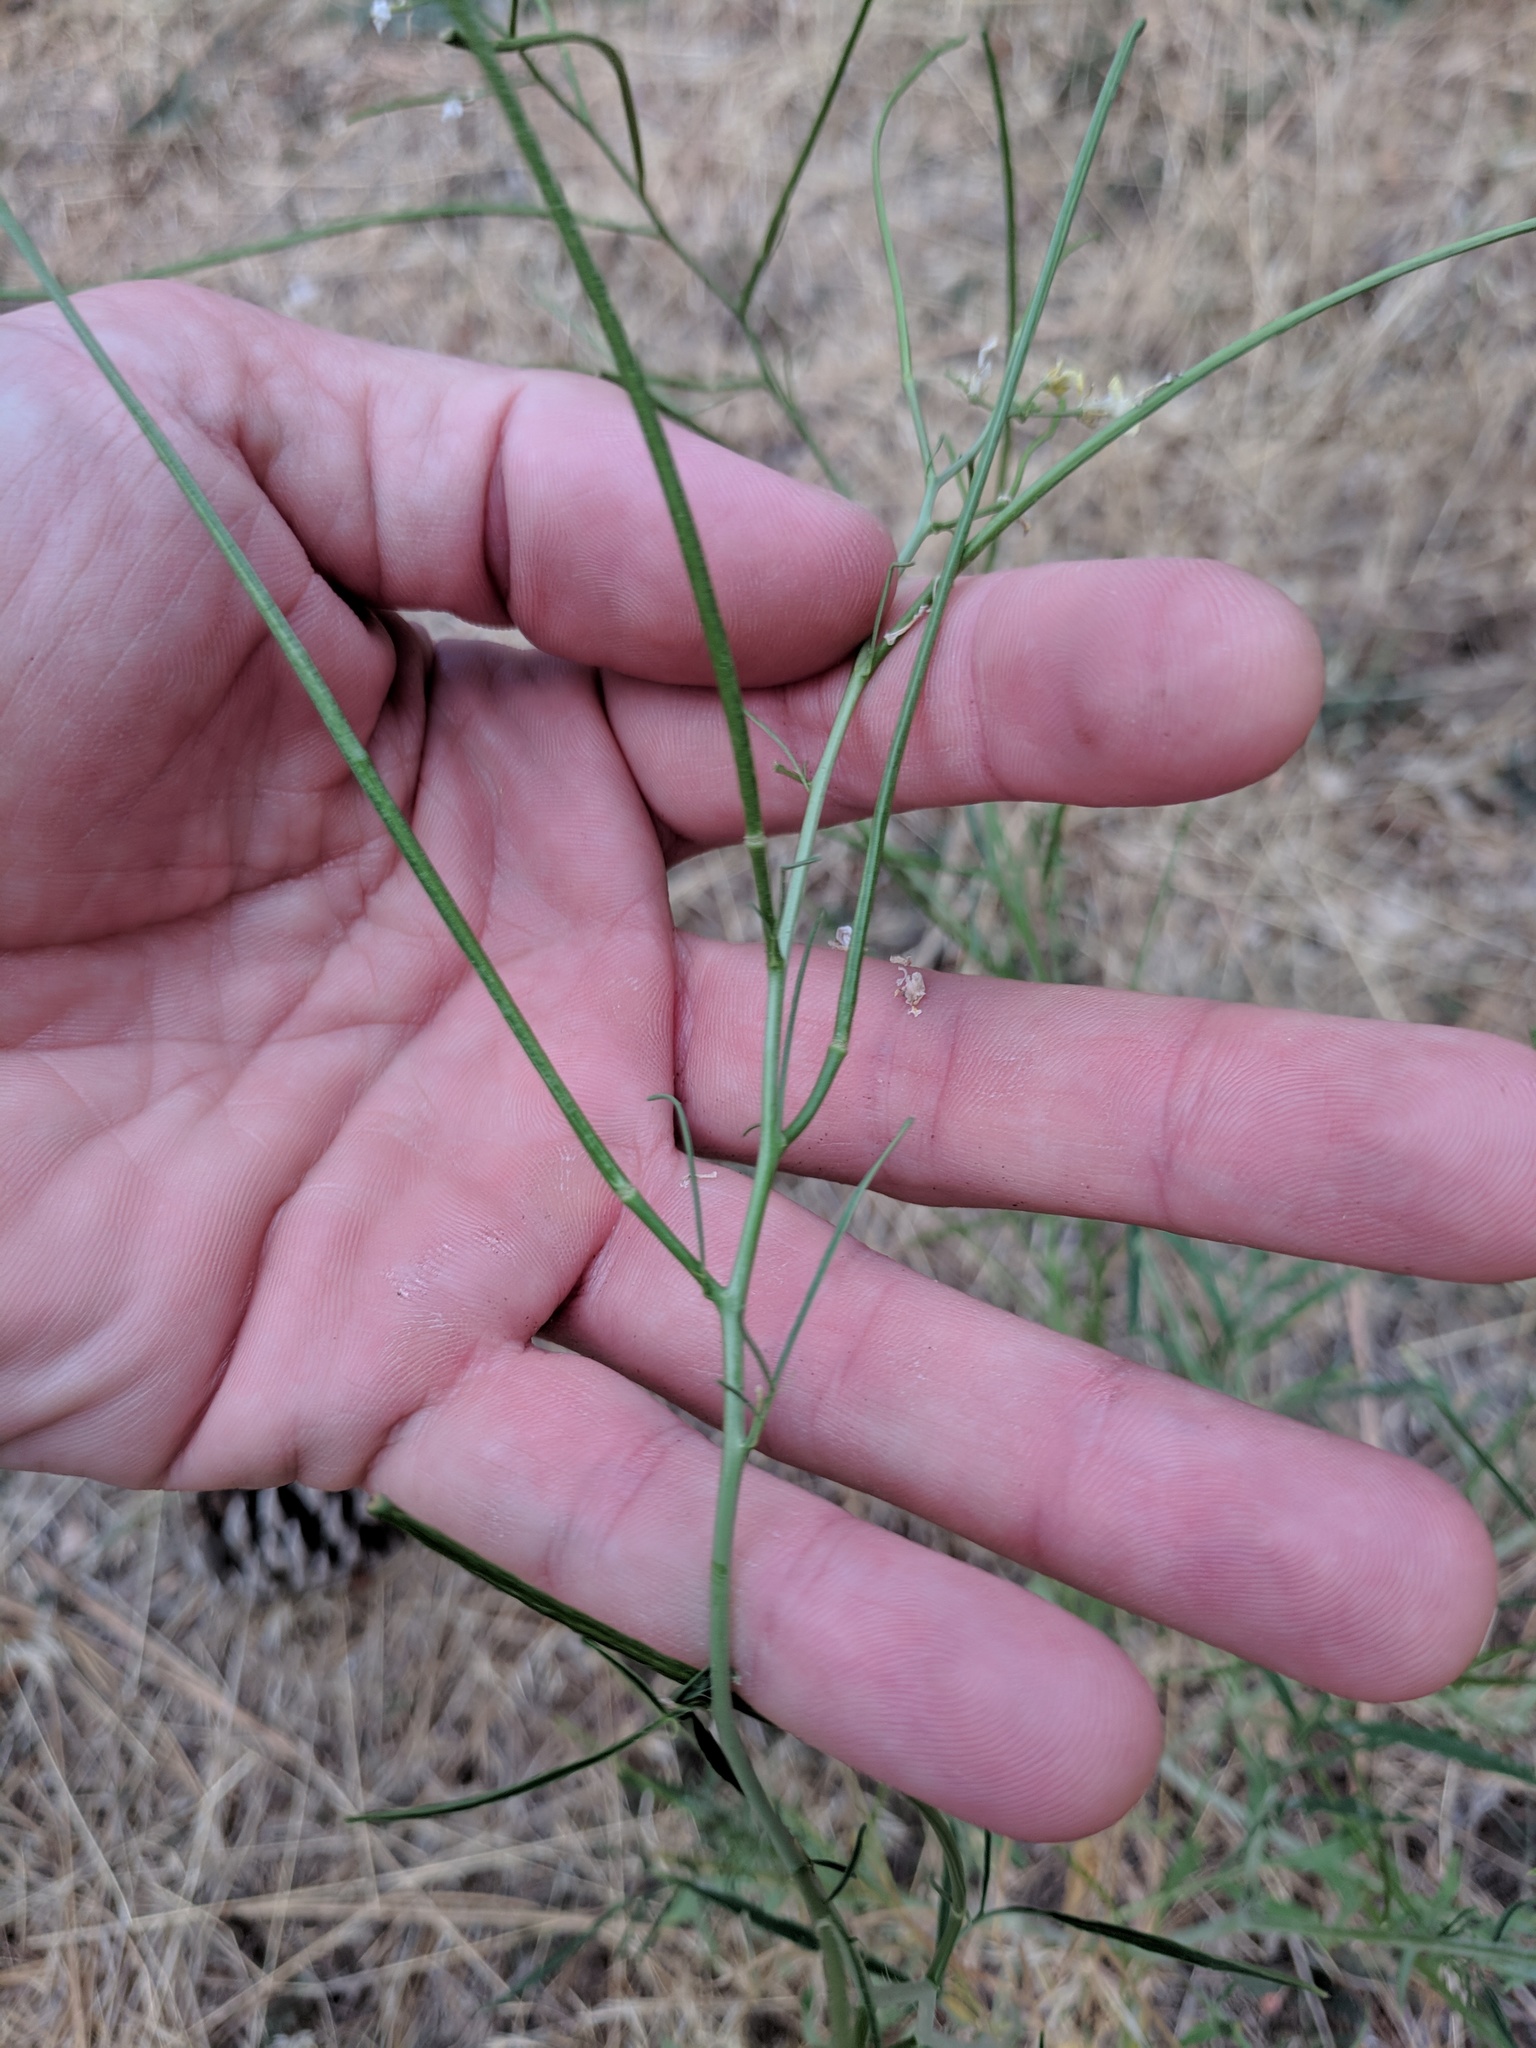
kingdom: Plantae
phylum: Tracheophyta
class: Magnoliopsida
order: Brassicales
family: Brassicaceae
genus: Sisymbrium
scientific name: Sisymbrium altissimum
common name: Tall rocket
